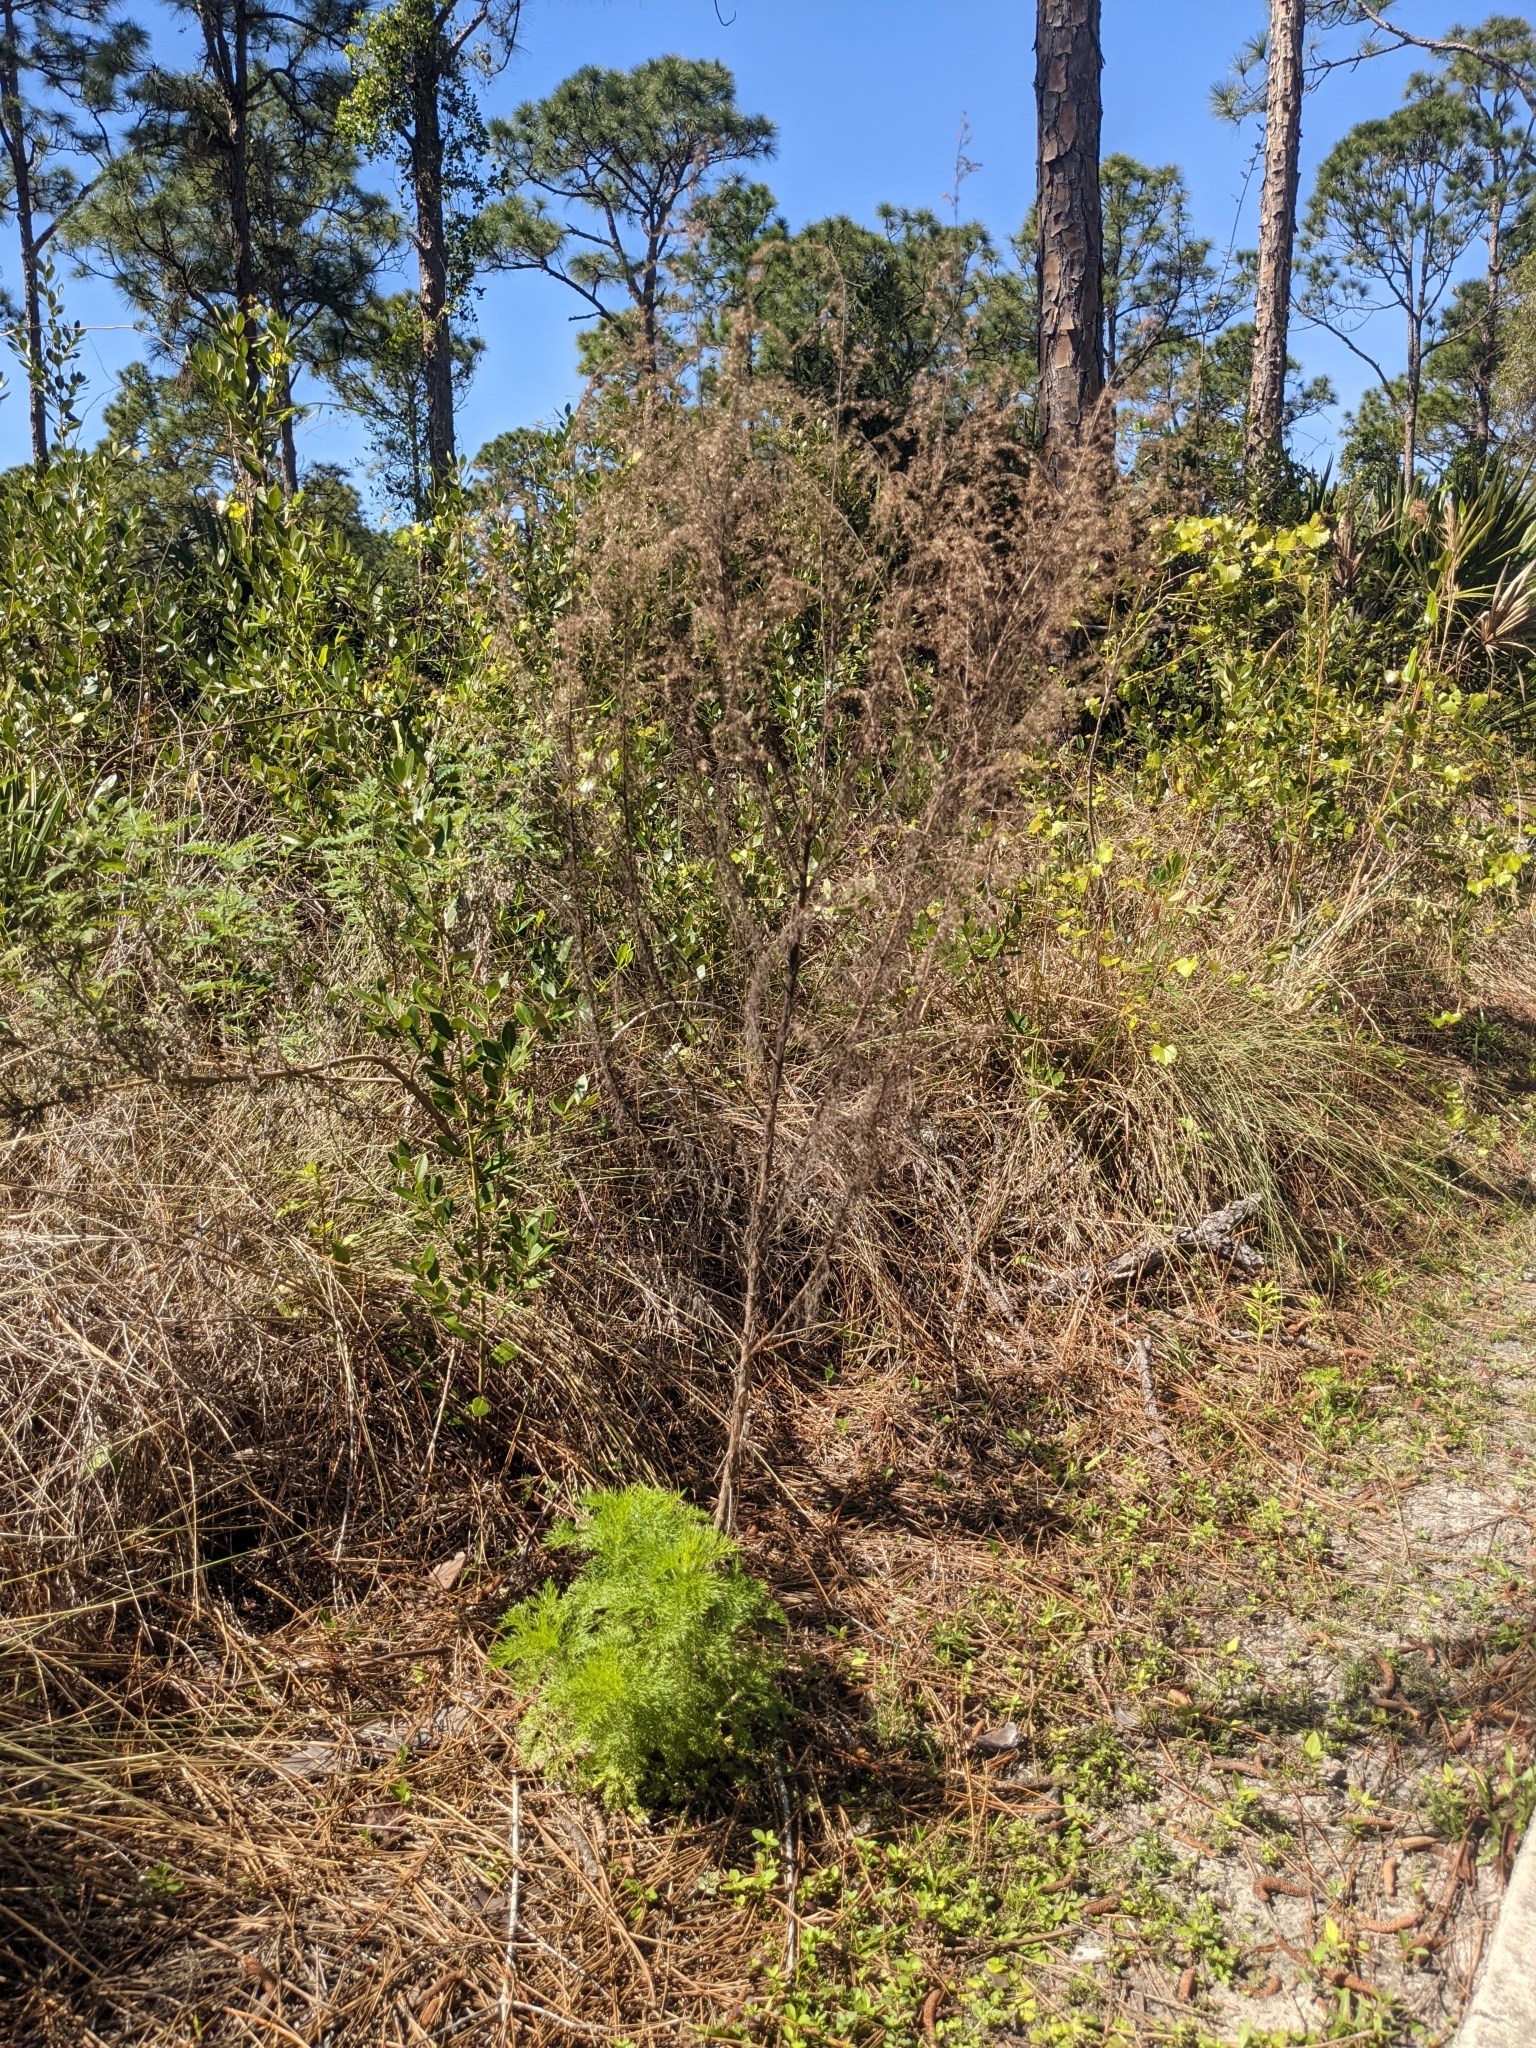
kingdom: Plantae
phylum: Tracheophyta
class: Magnoliopsida
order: Asterales
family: Asteraceae
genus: Eupatorium
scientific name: Eupatorium capillifolium
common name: Dog-fennel
